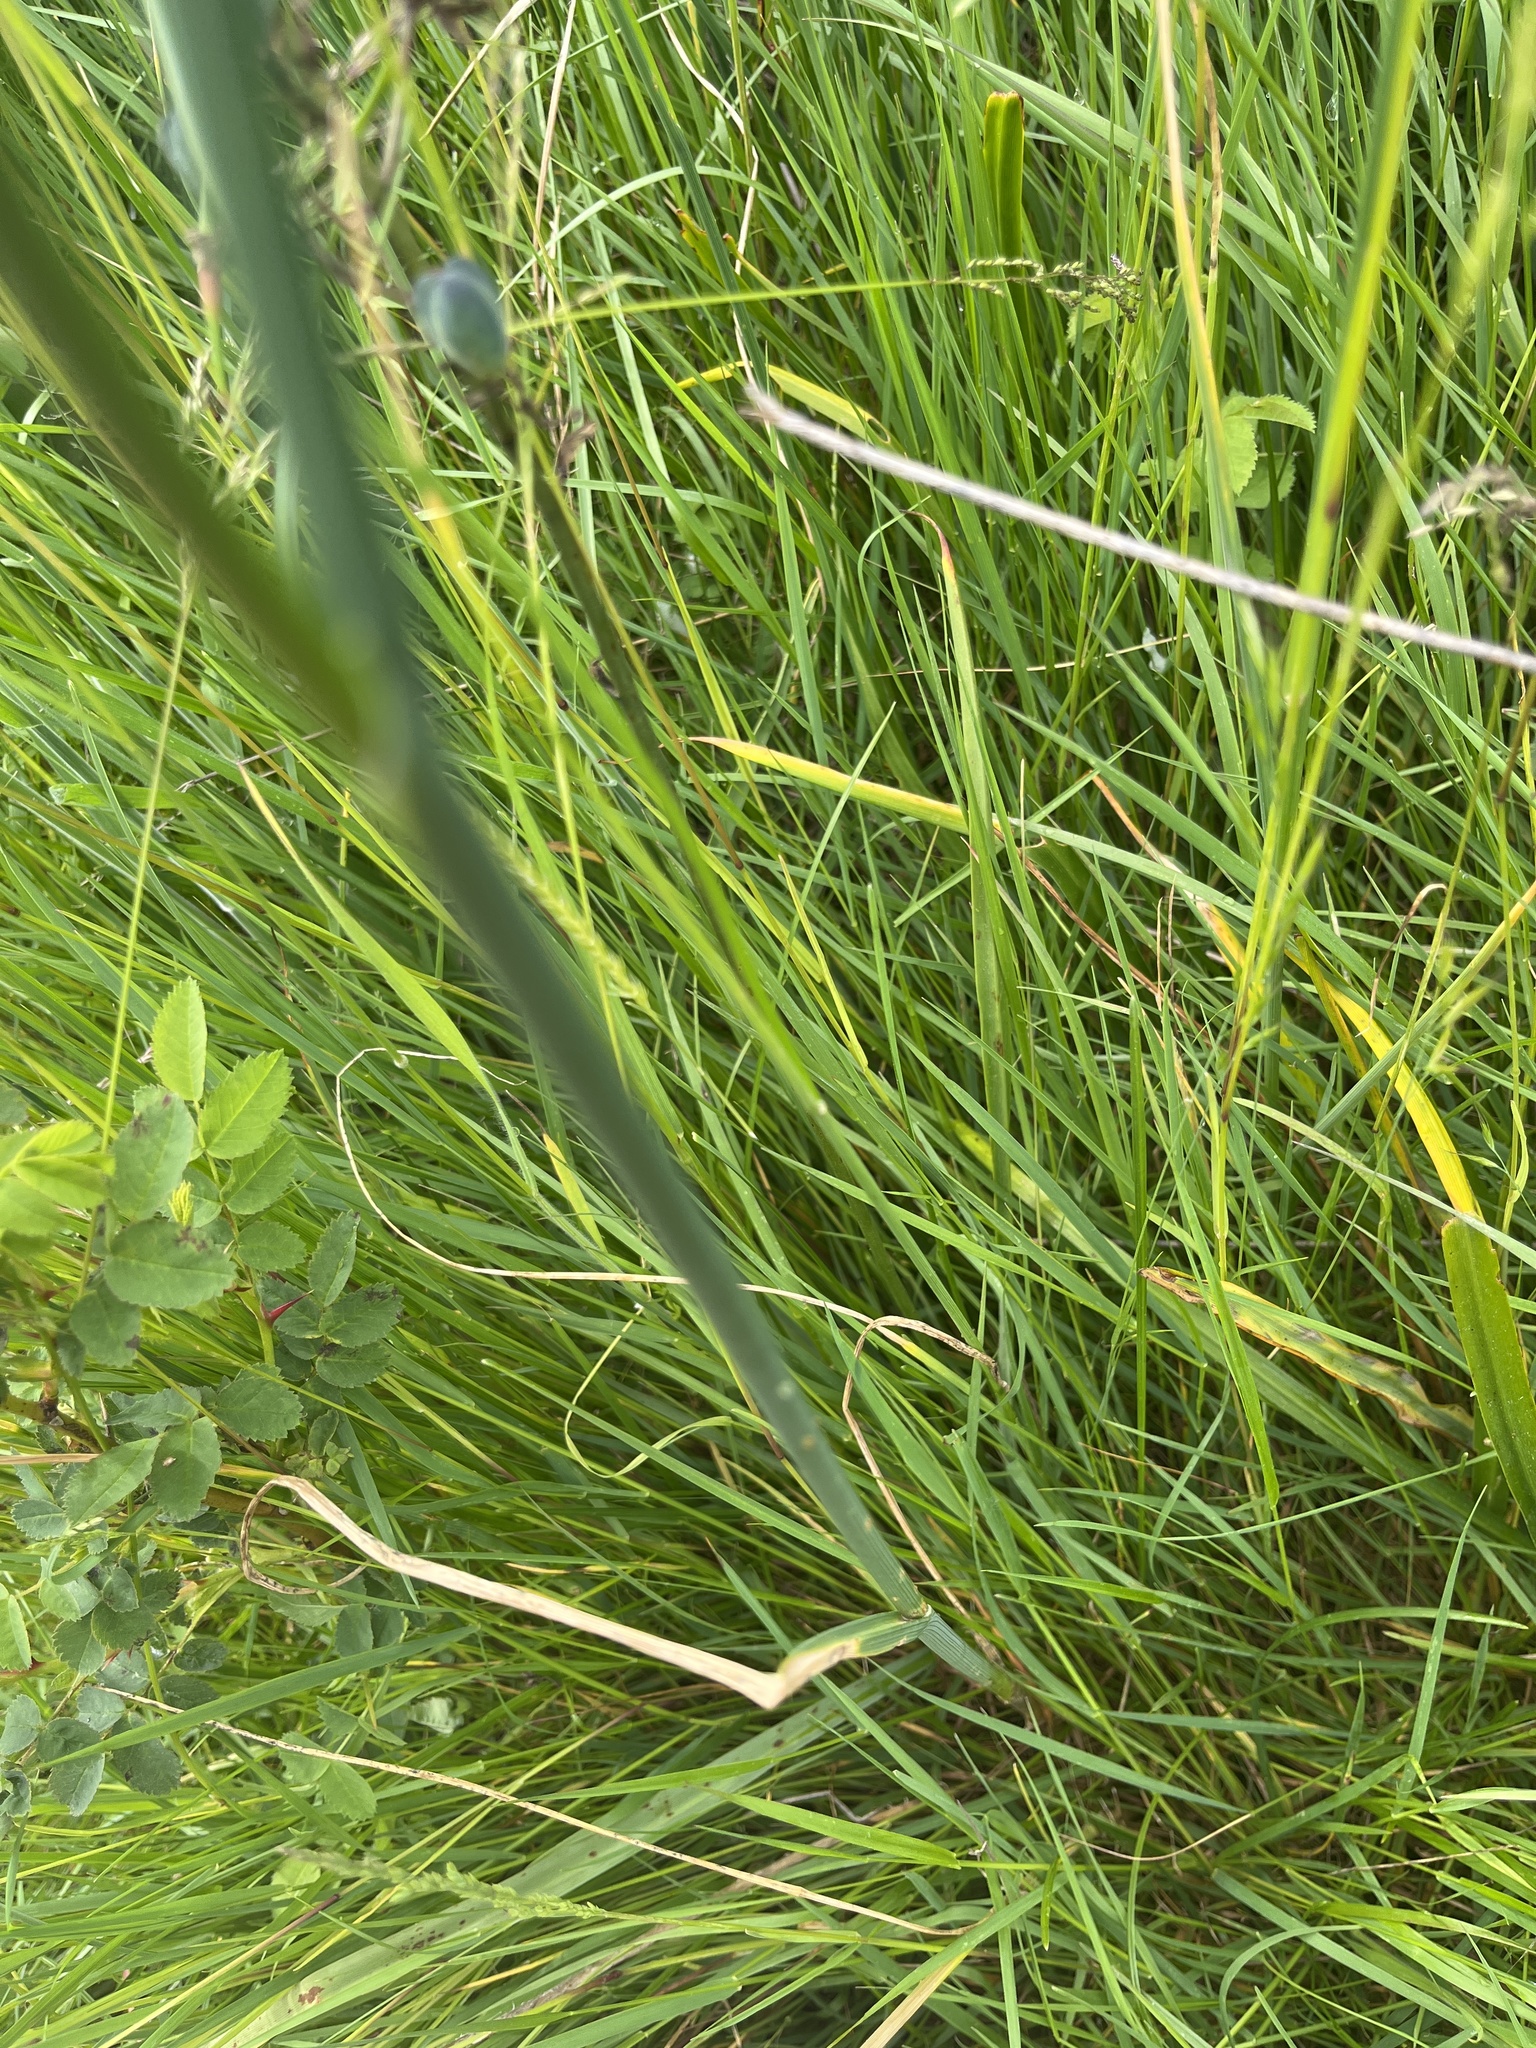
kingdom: Plantae
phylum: Tracheophyta
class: Liliopsida
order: Asparagales
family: Amaryllidaceae
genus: Allium
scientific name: Allium acuminatum
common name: Hooker's onion
